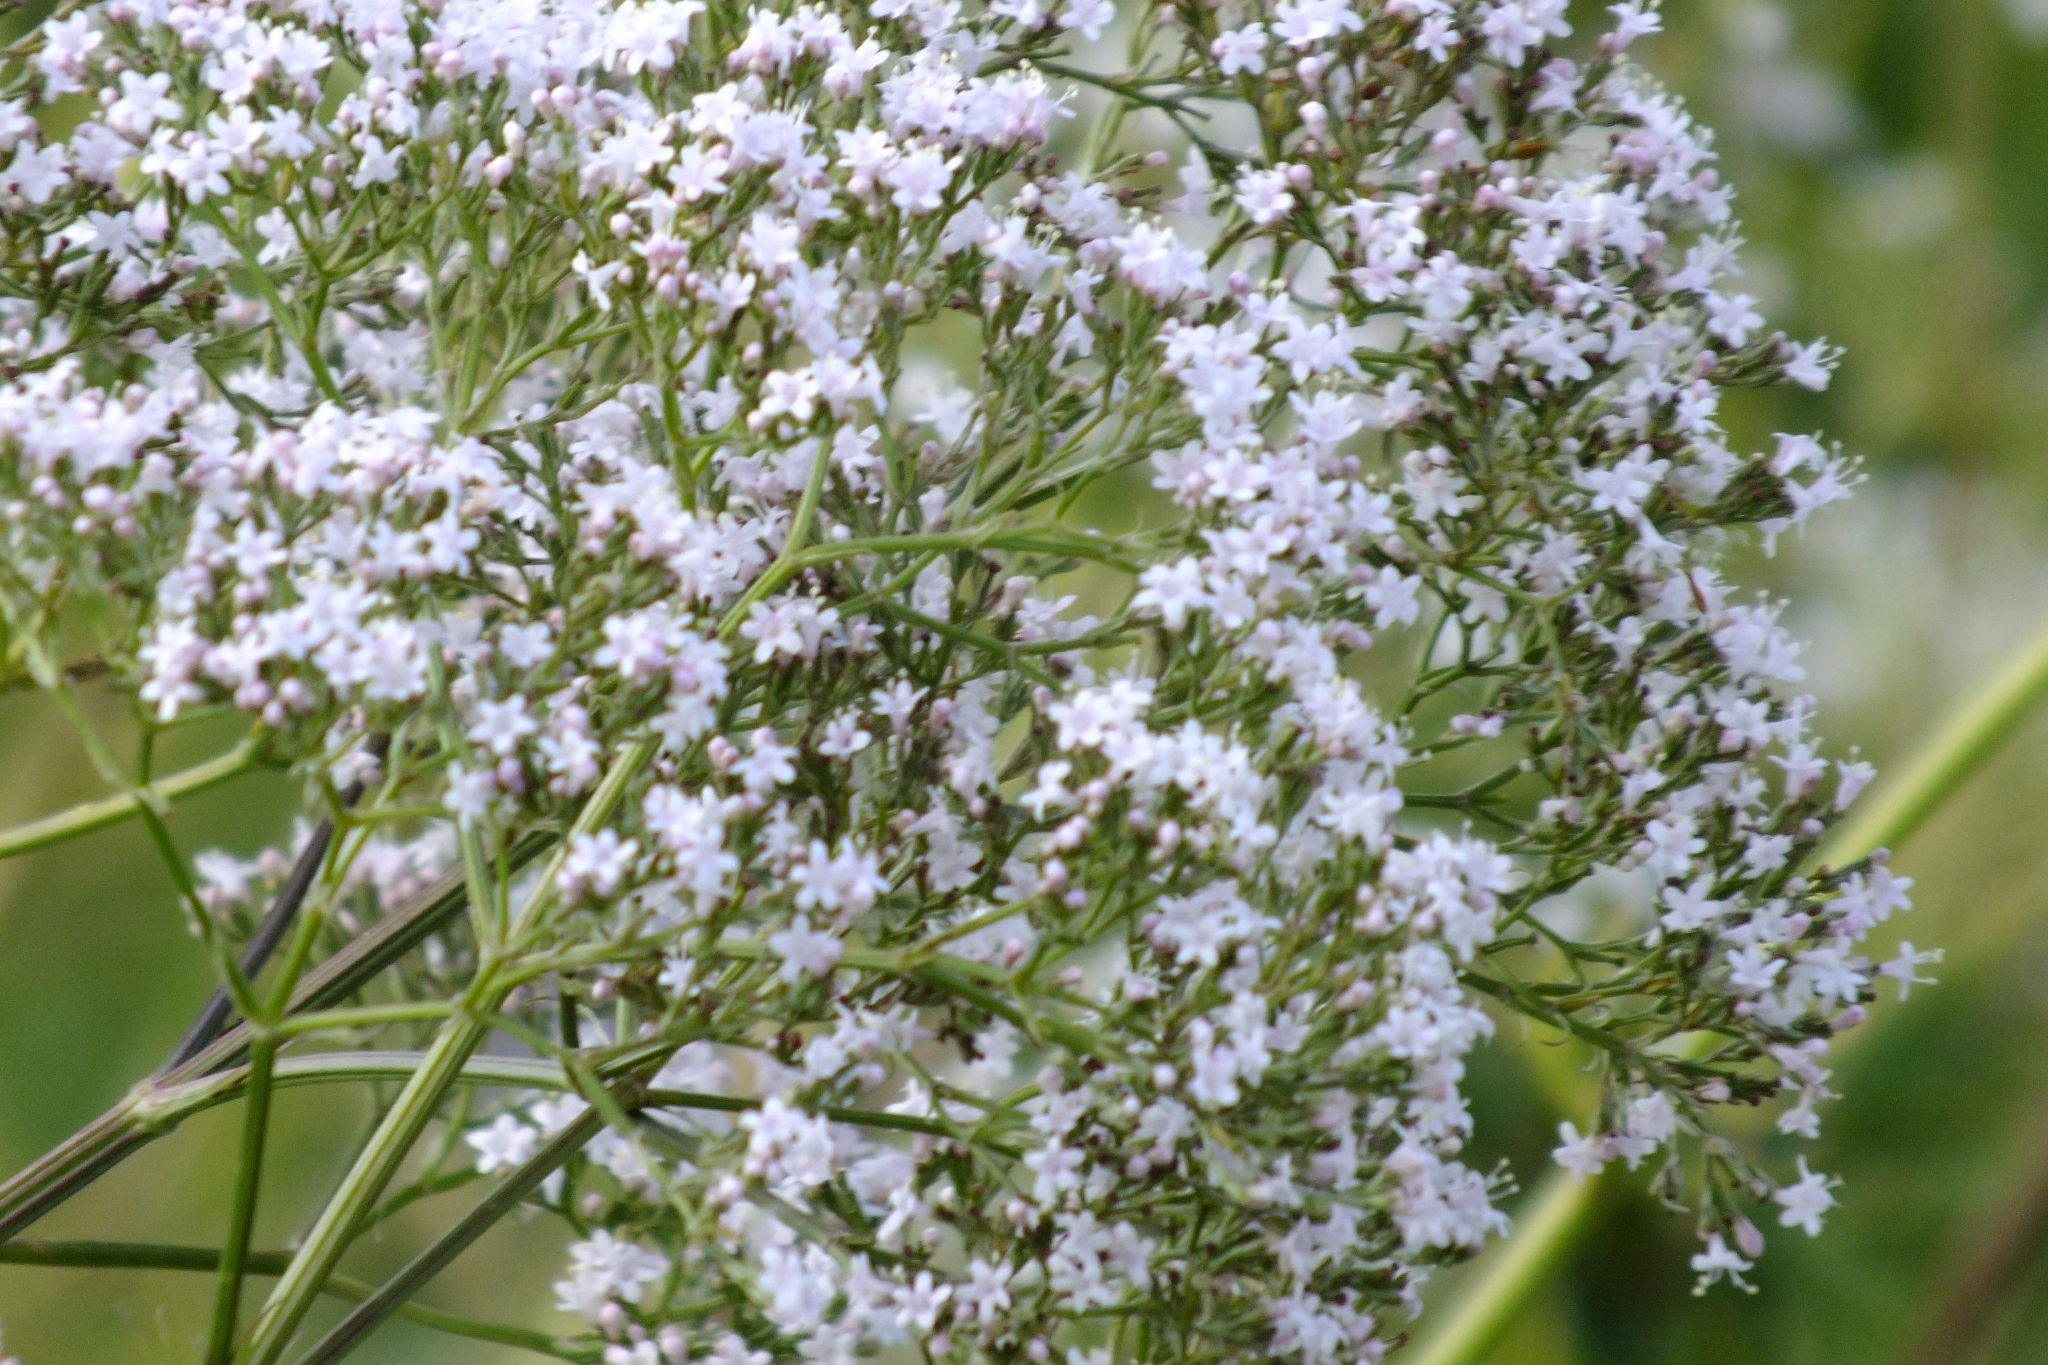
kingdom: Plantae
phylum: Tracheophyta
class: Magnoliopsida
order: Dipsacales
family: Caprifoliaceae
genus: Valeriana
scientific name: Valeriana officinalis
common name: Common valerian
